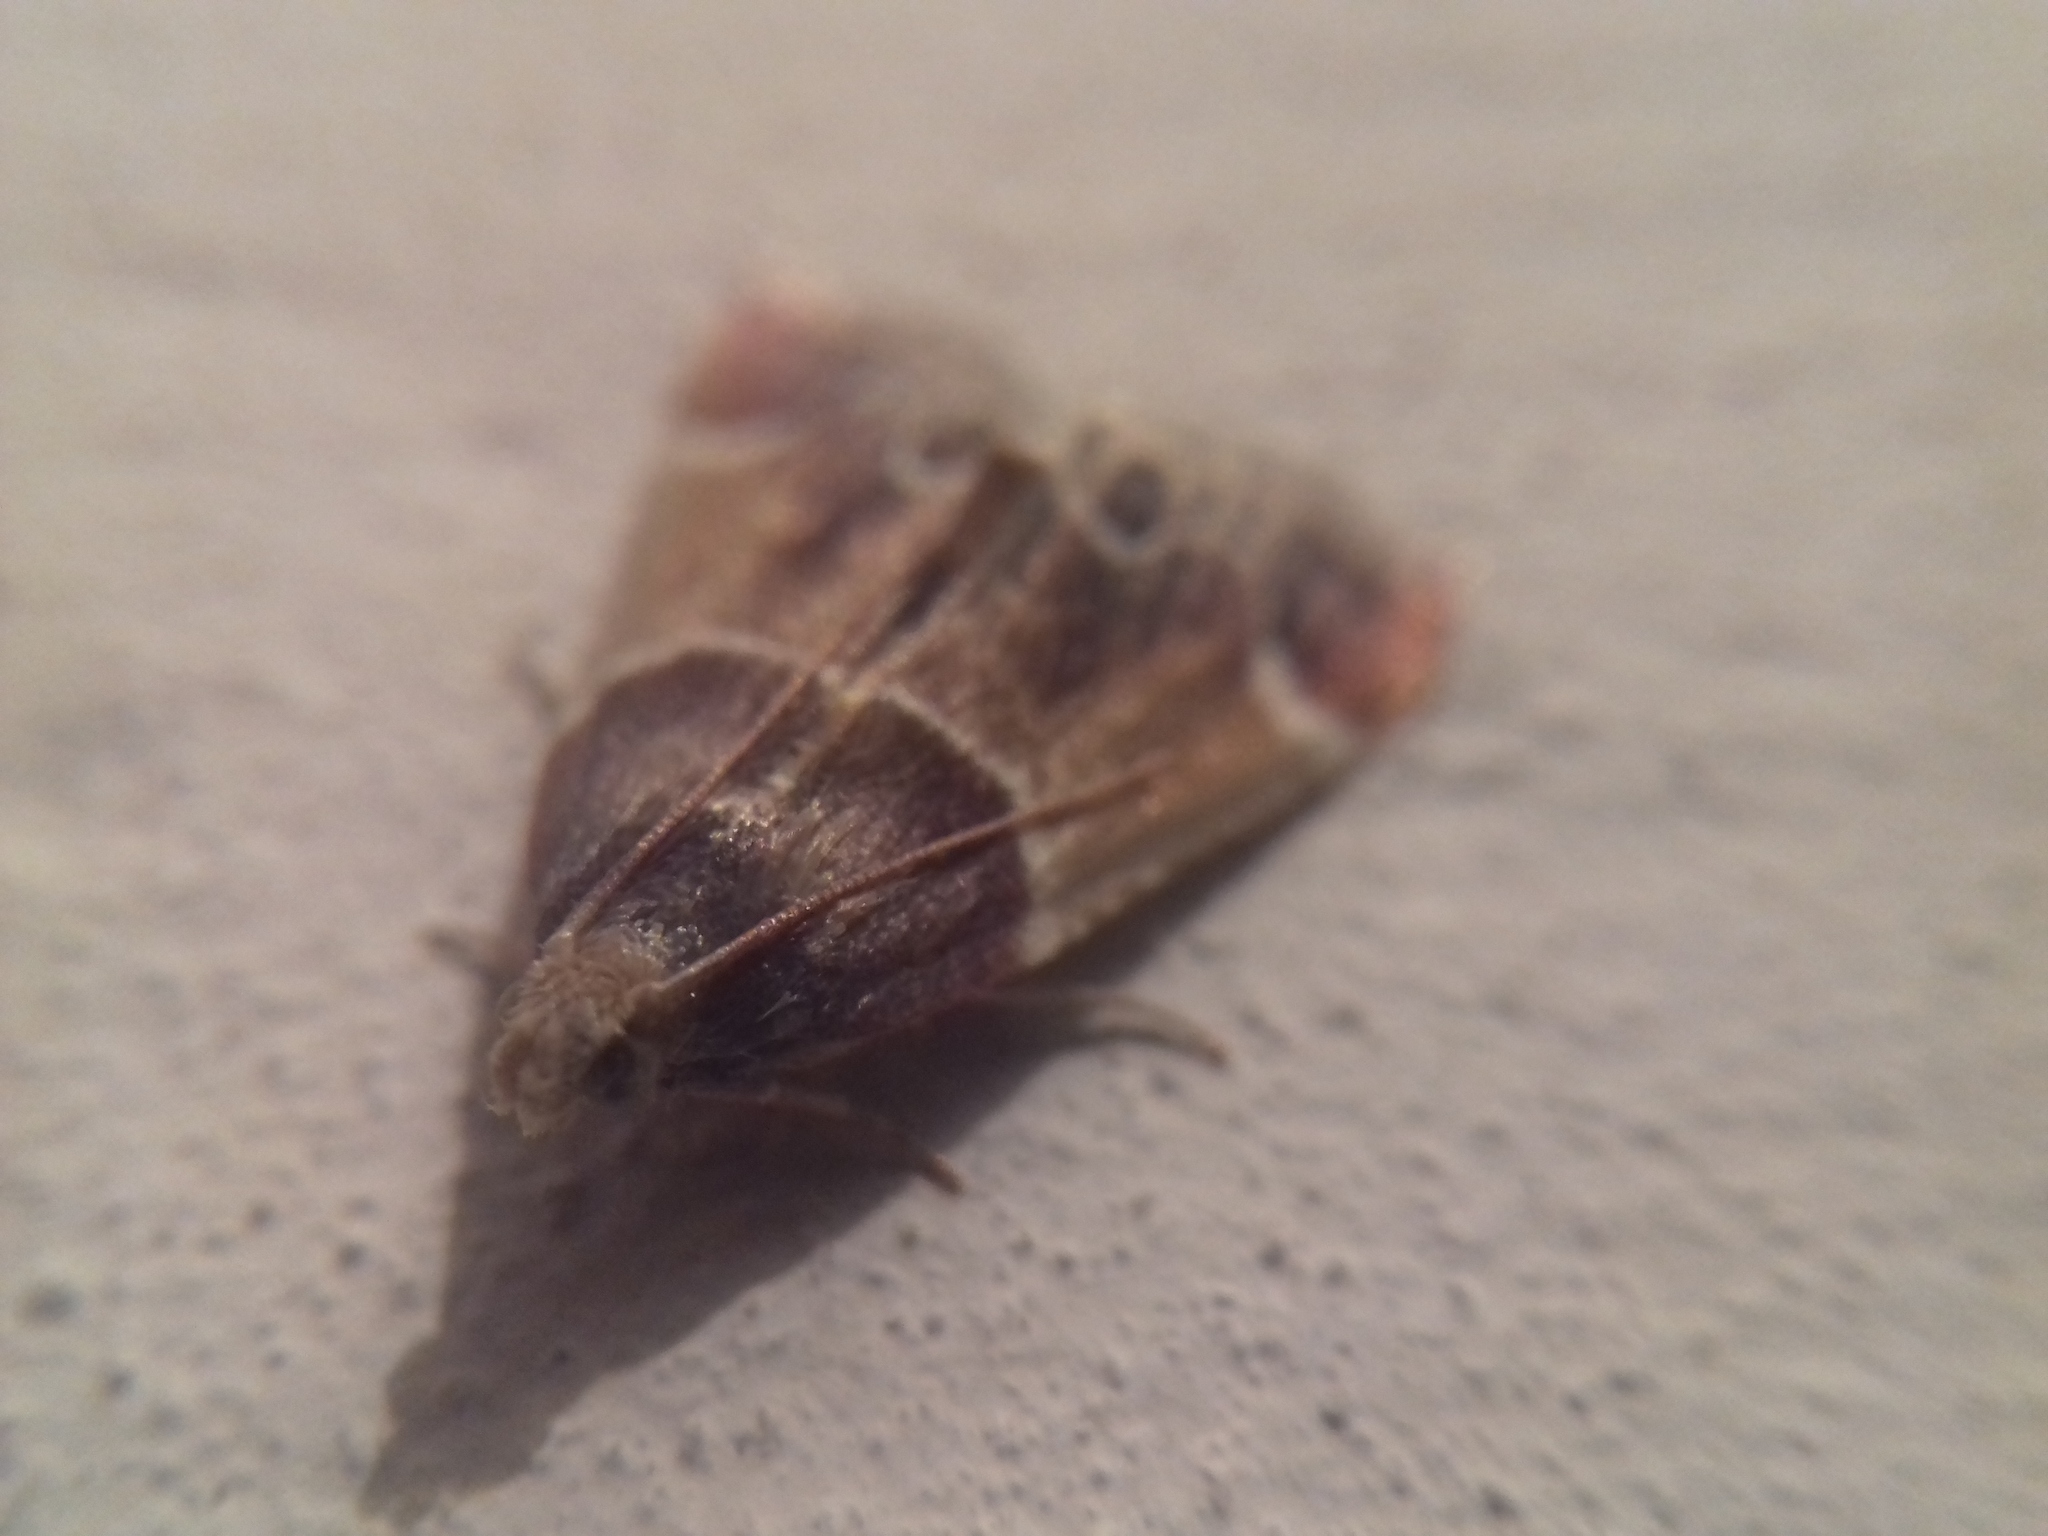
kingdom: Animalia
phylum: Arthropoda
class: Insecta
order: Lepidoptera
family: Pyralidae
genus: Pyralis
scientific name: Pyralis farinalis
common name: Meal moth
